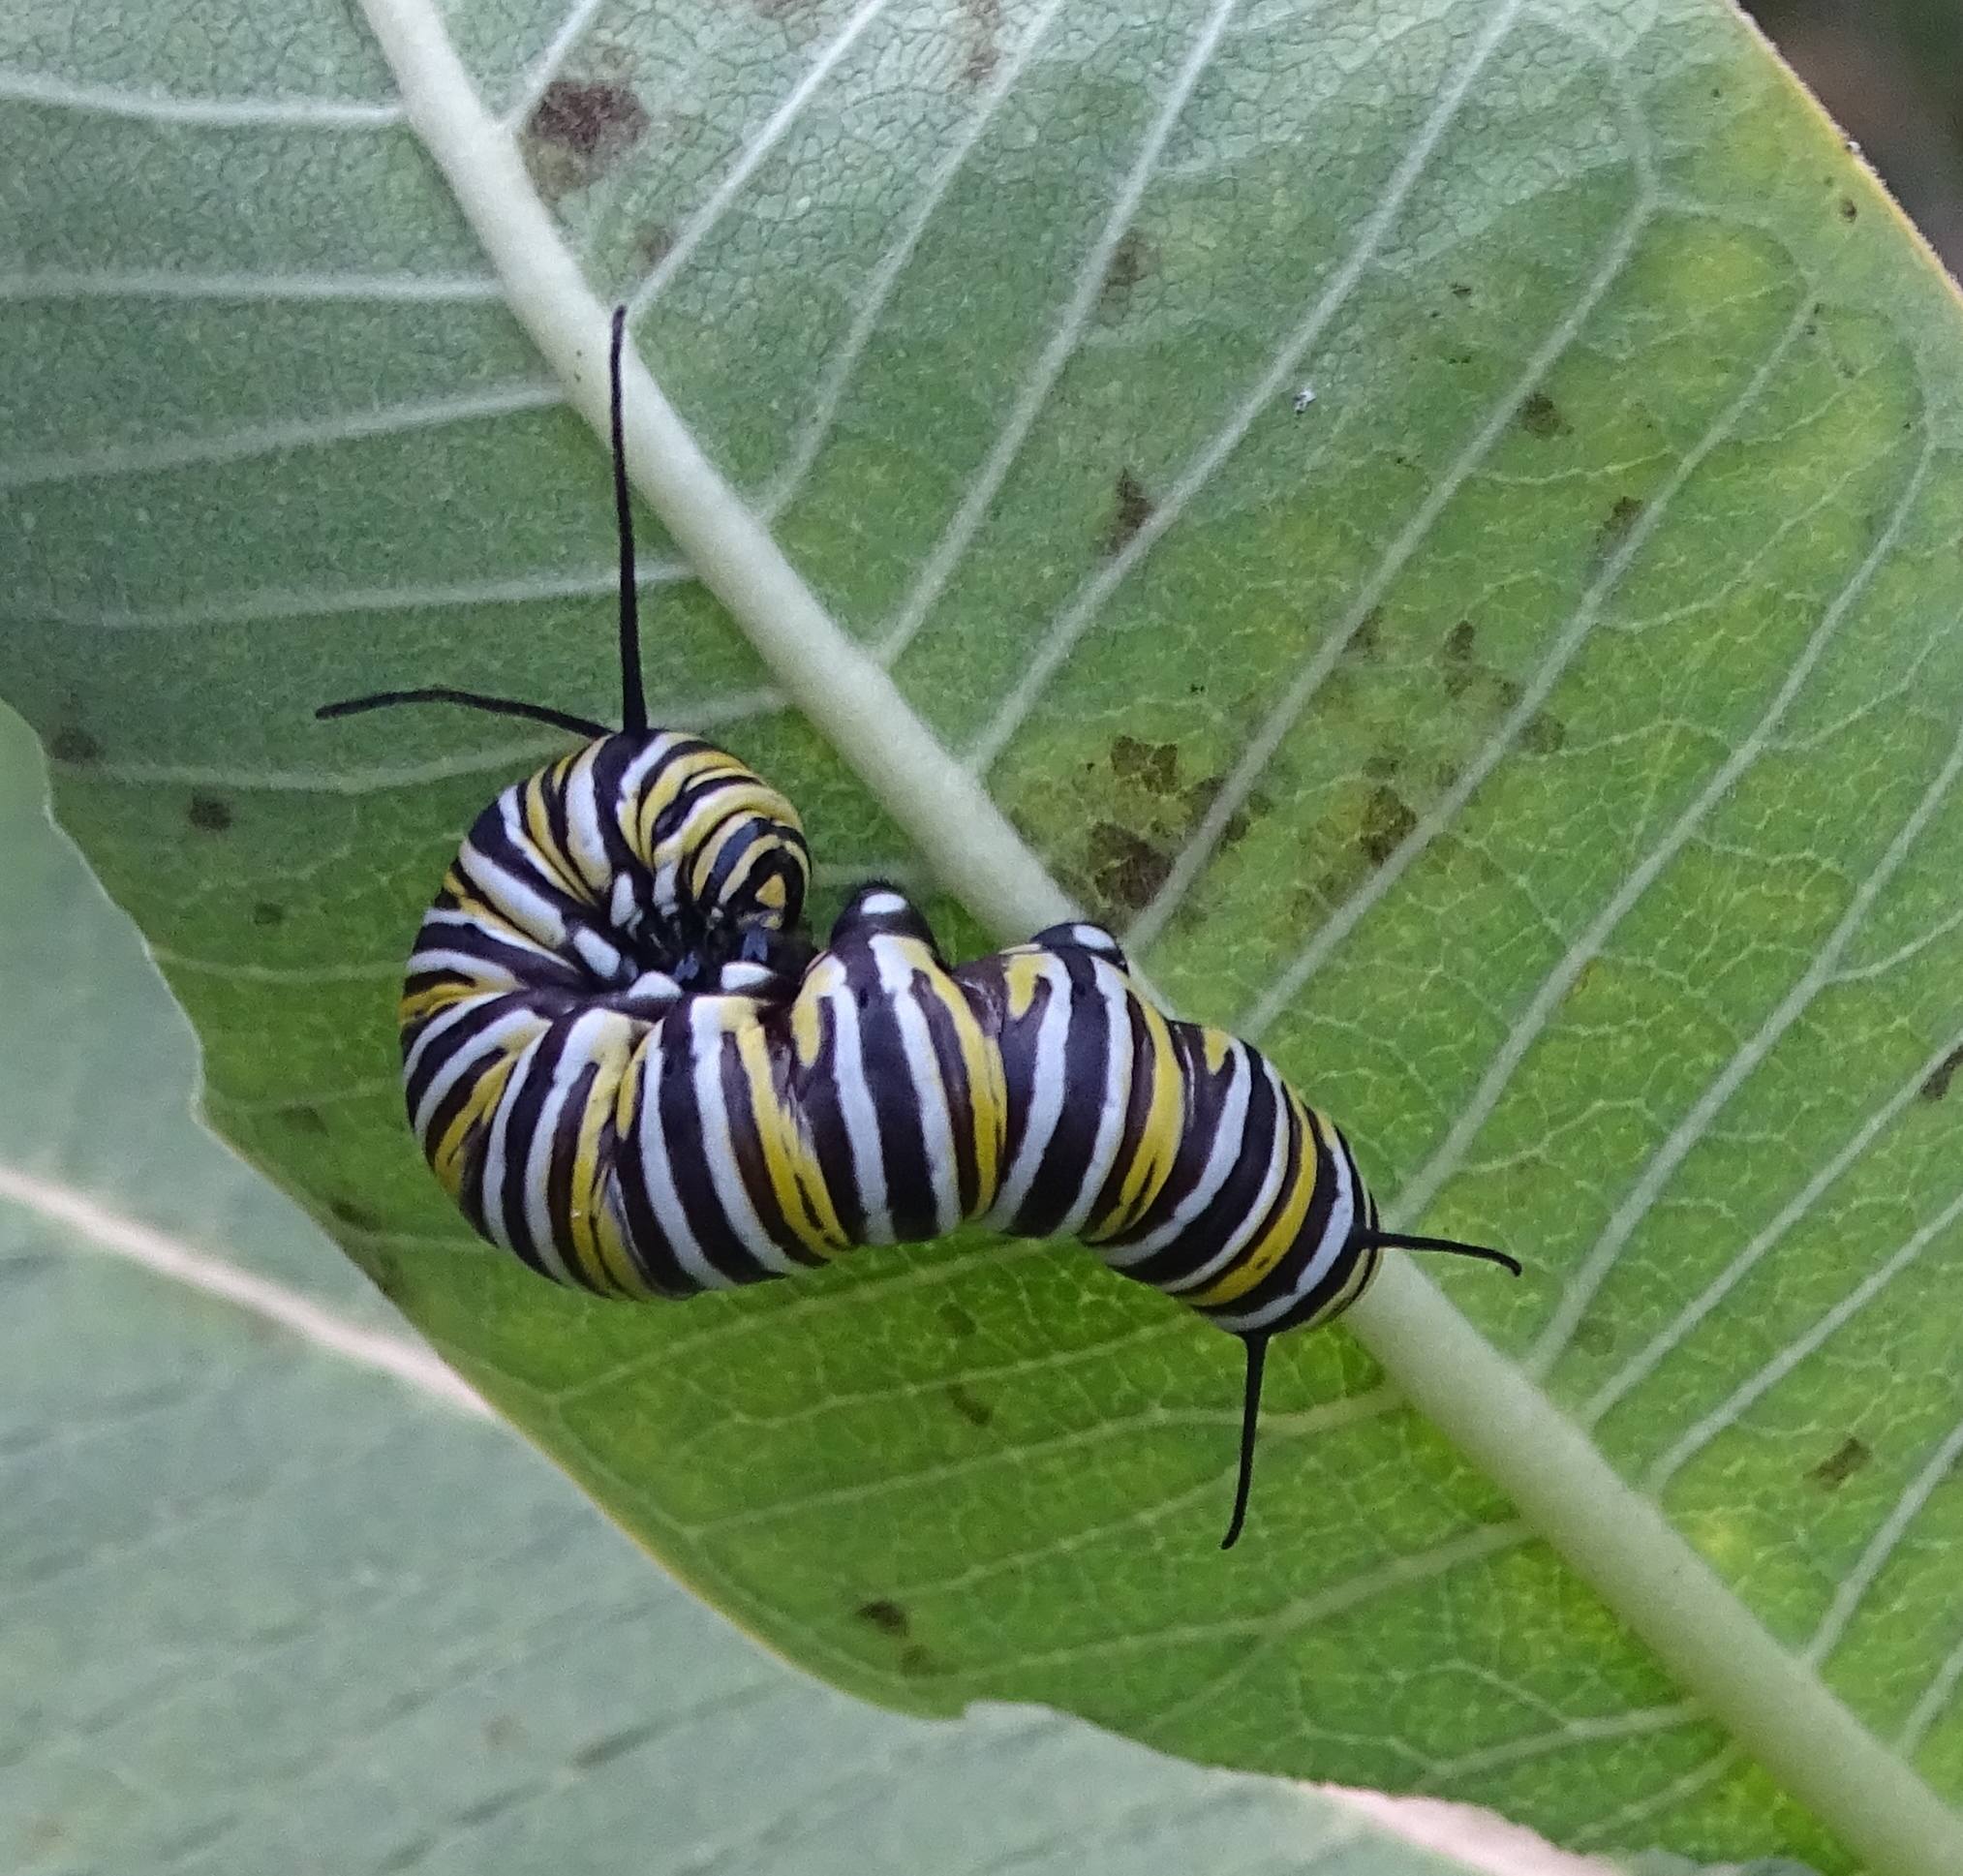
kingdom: Animalia
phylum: Arthropoda
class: Insecta
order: Lepidoptera
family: Nymphalidae
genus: Danaus
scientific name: Danaus plexippus
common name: Monarch
